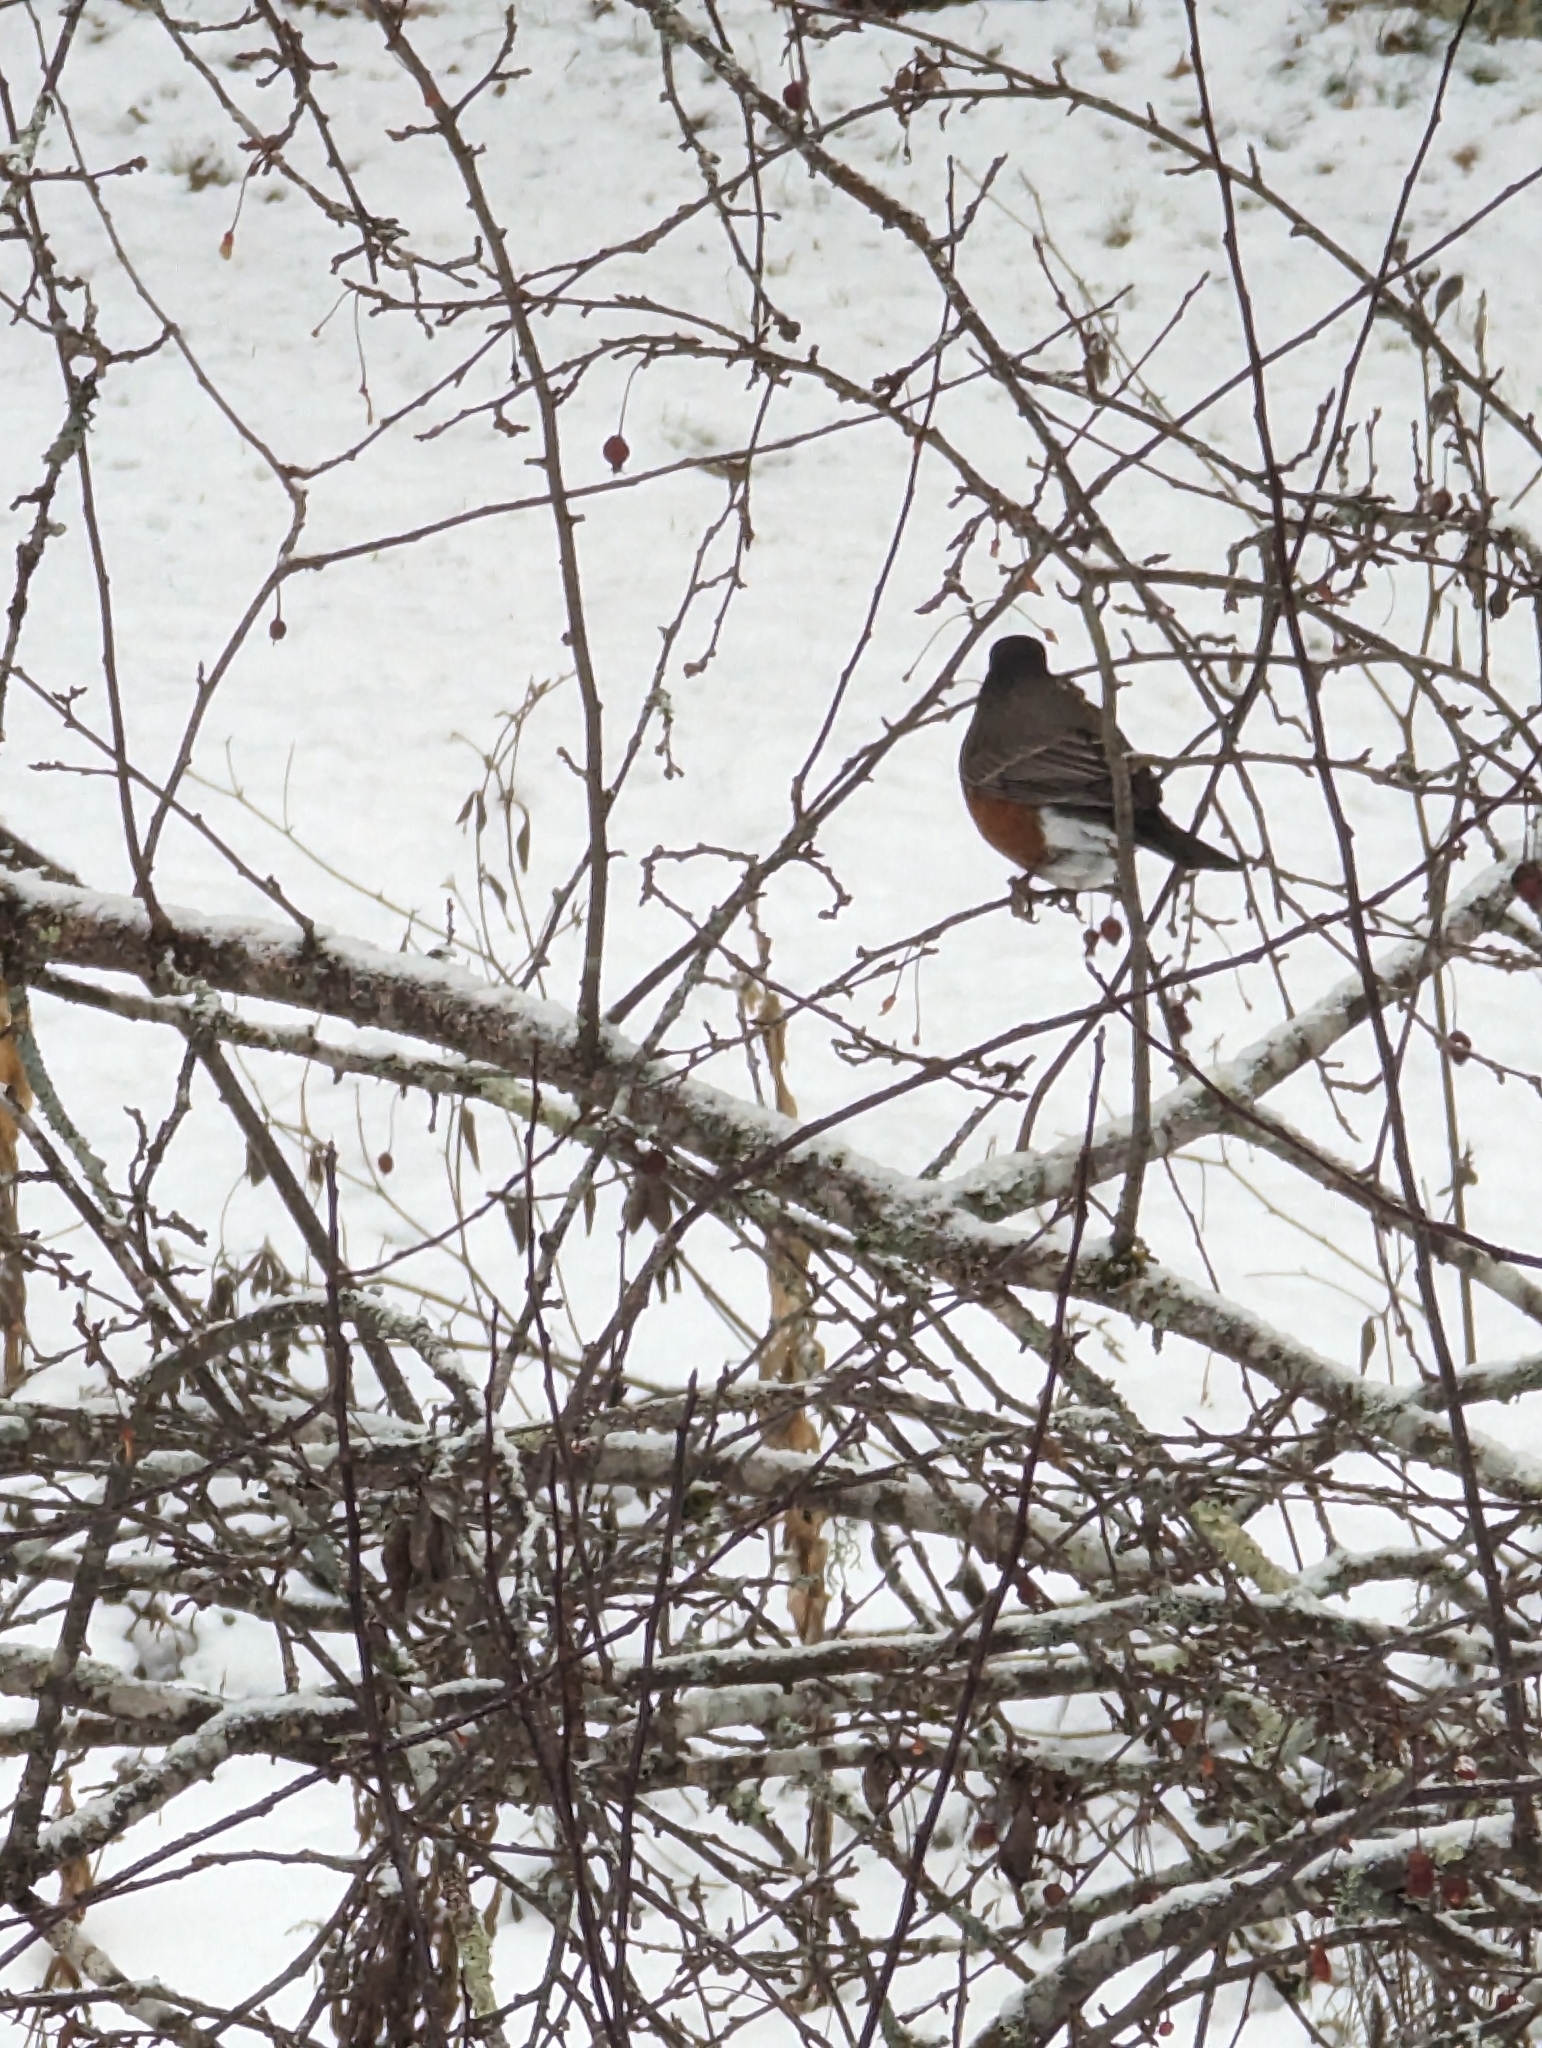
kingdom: Animalia
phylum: Chordata
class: Aves
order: Passeriformes
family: Turdidae
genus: Turdus
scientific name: Turdus migratorius
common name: American robin
